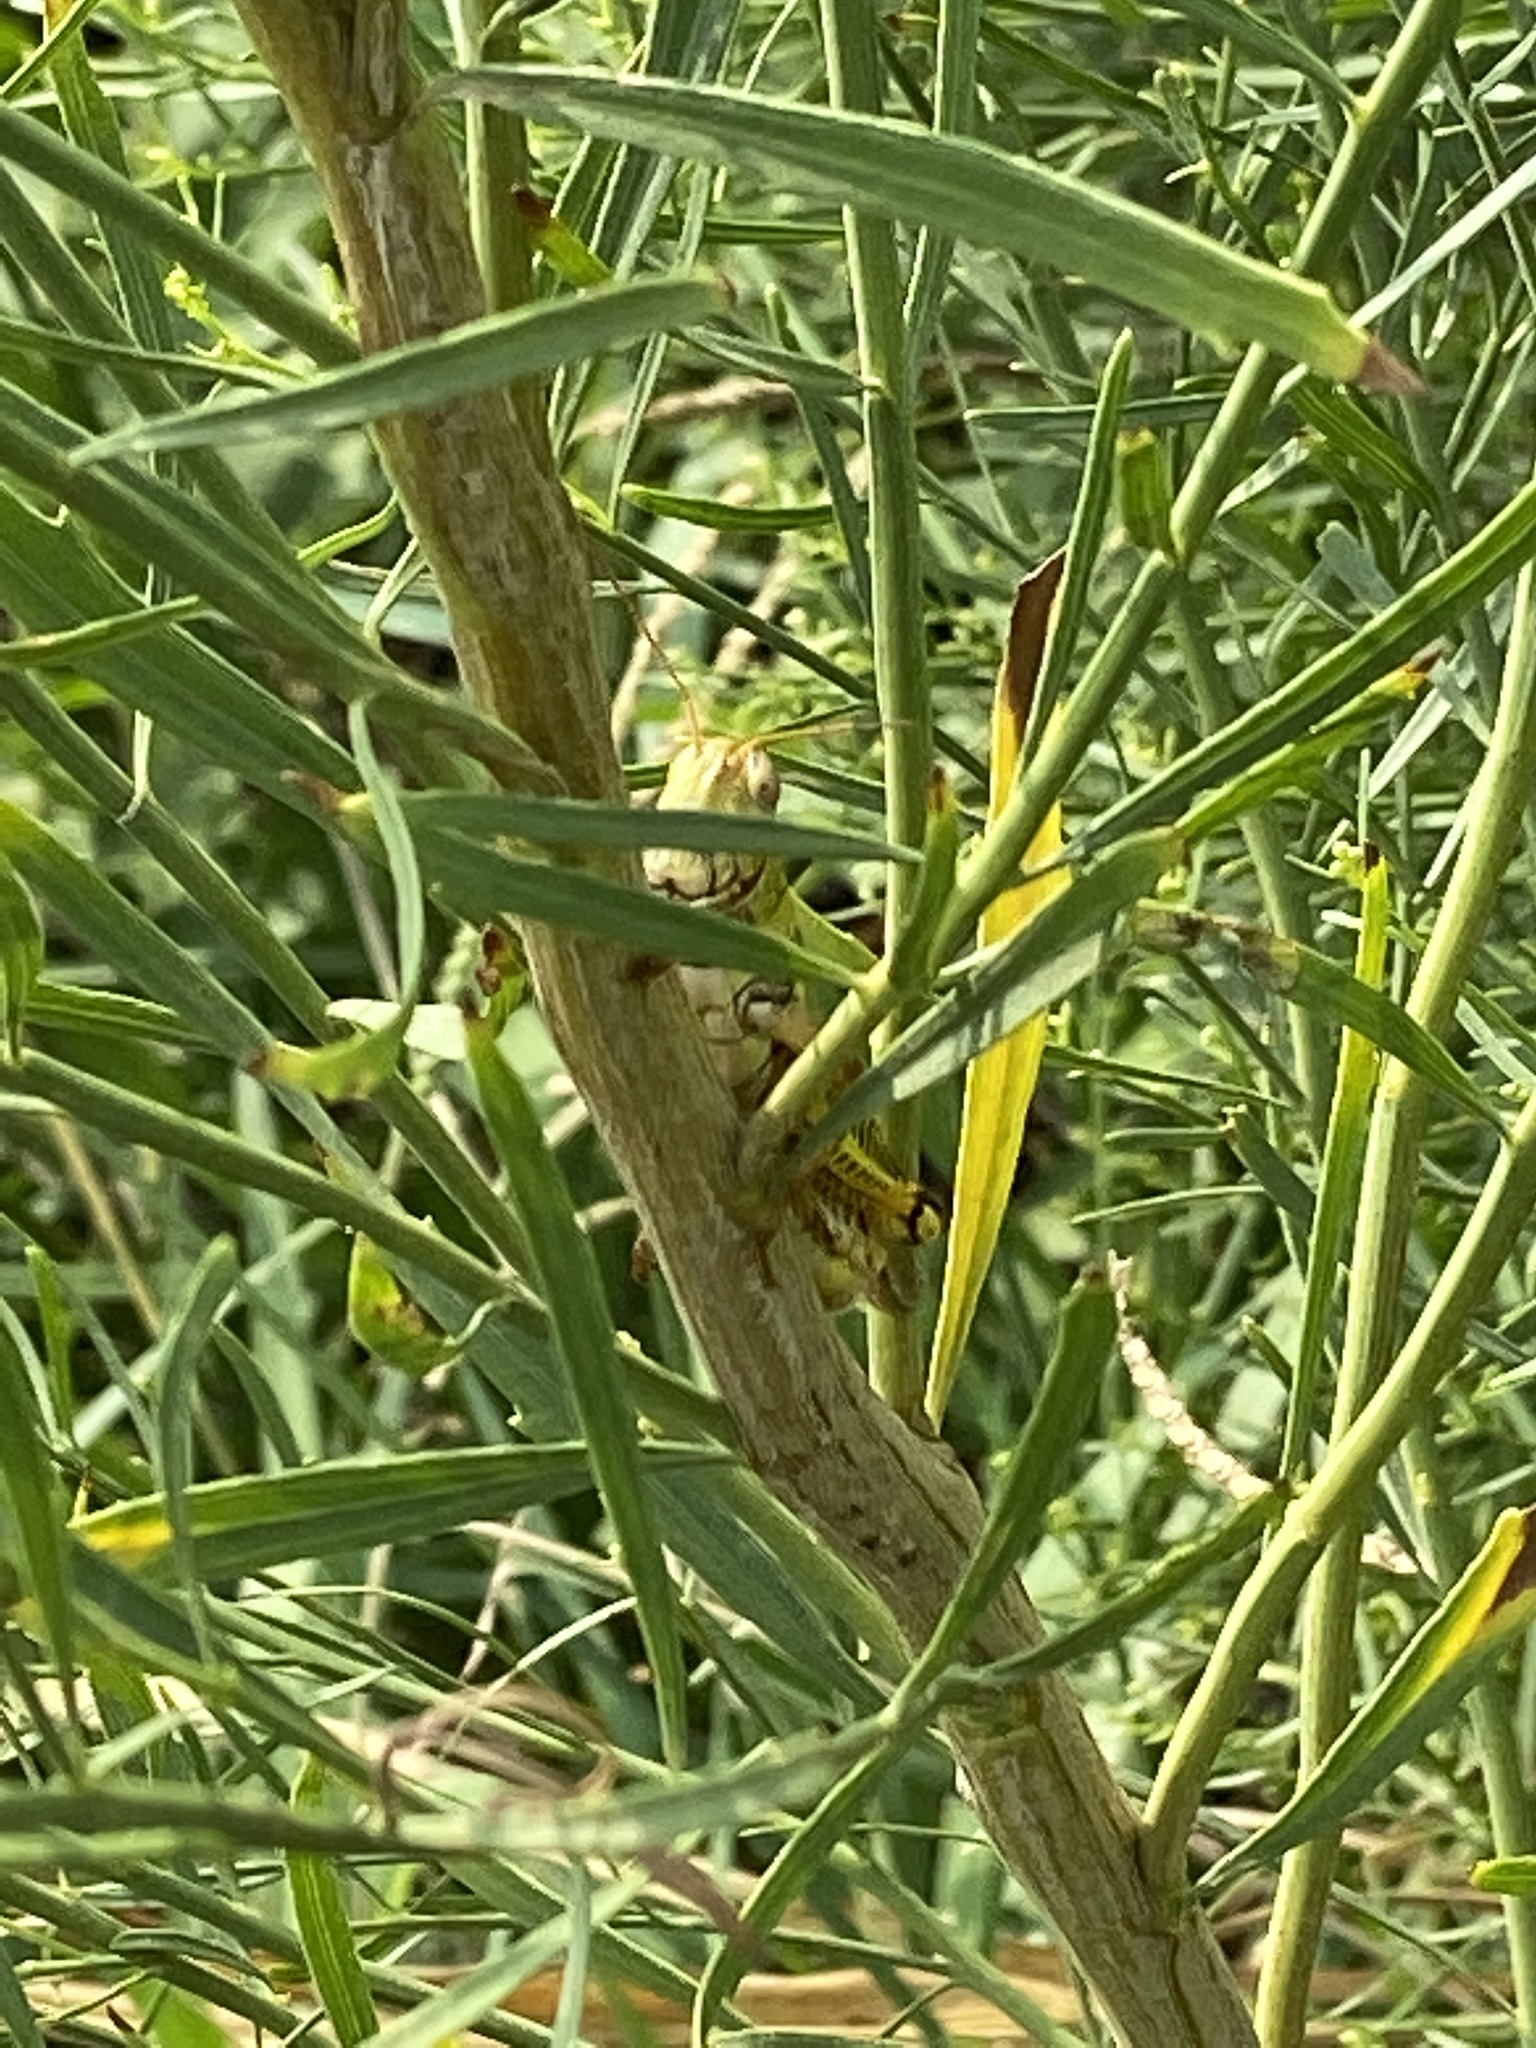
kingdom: Animalia
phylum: Arthropoda
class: Insecta
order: Orthoptera
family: Acrididae
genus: Melanoplus
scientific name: Melanoplus differentialis
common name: Differential grasshopper
